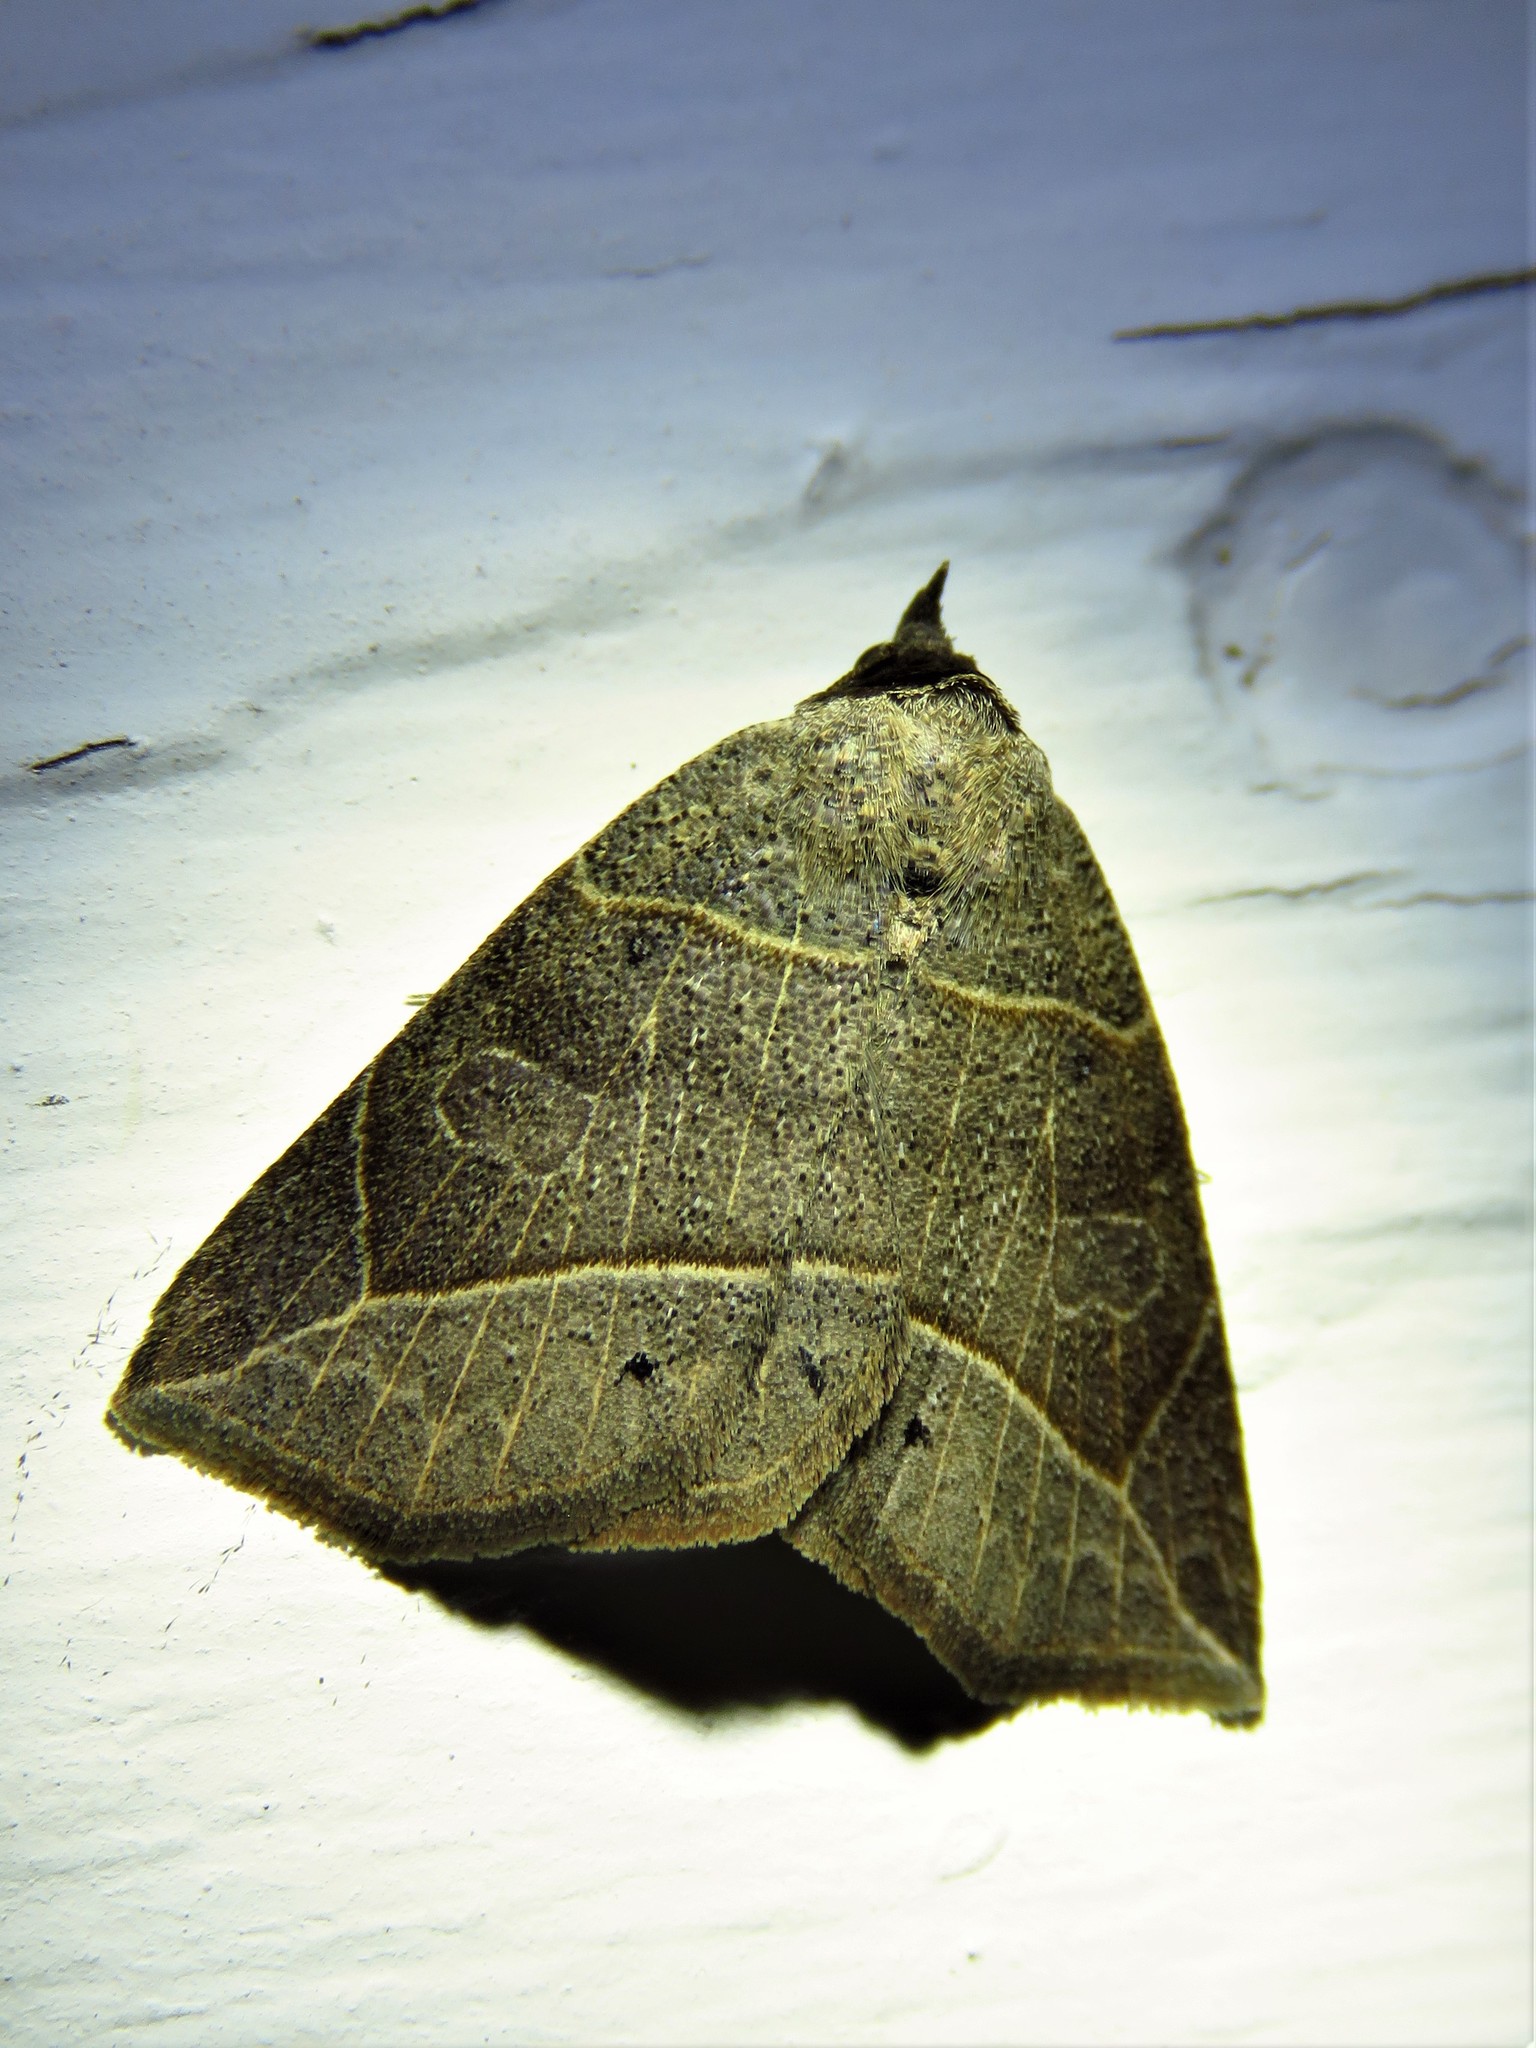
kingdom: Animalia
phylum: Arthropoda
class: Insecta
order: Lepidoptera
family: Erebidae
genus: Isogona
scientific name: Isogona tenuis
